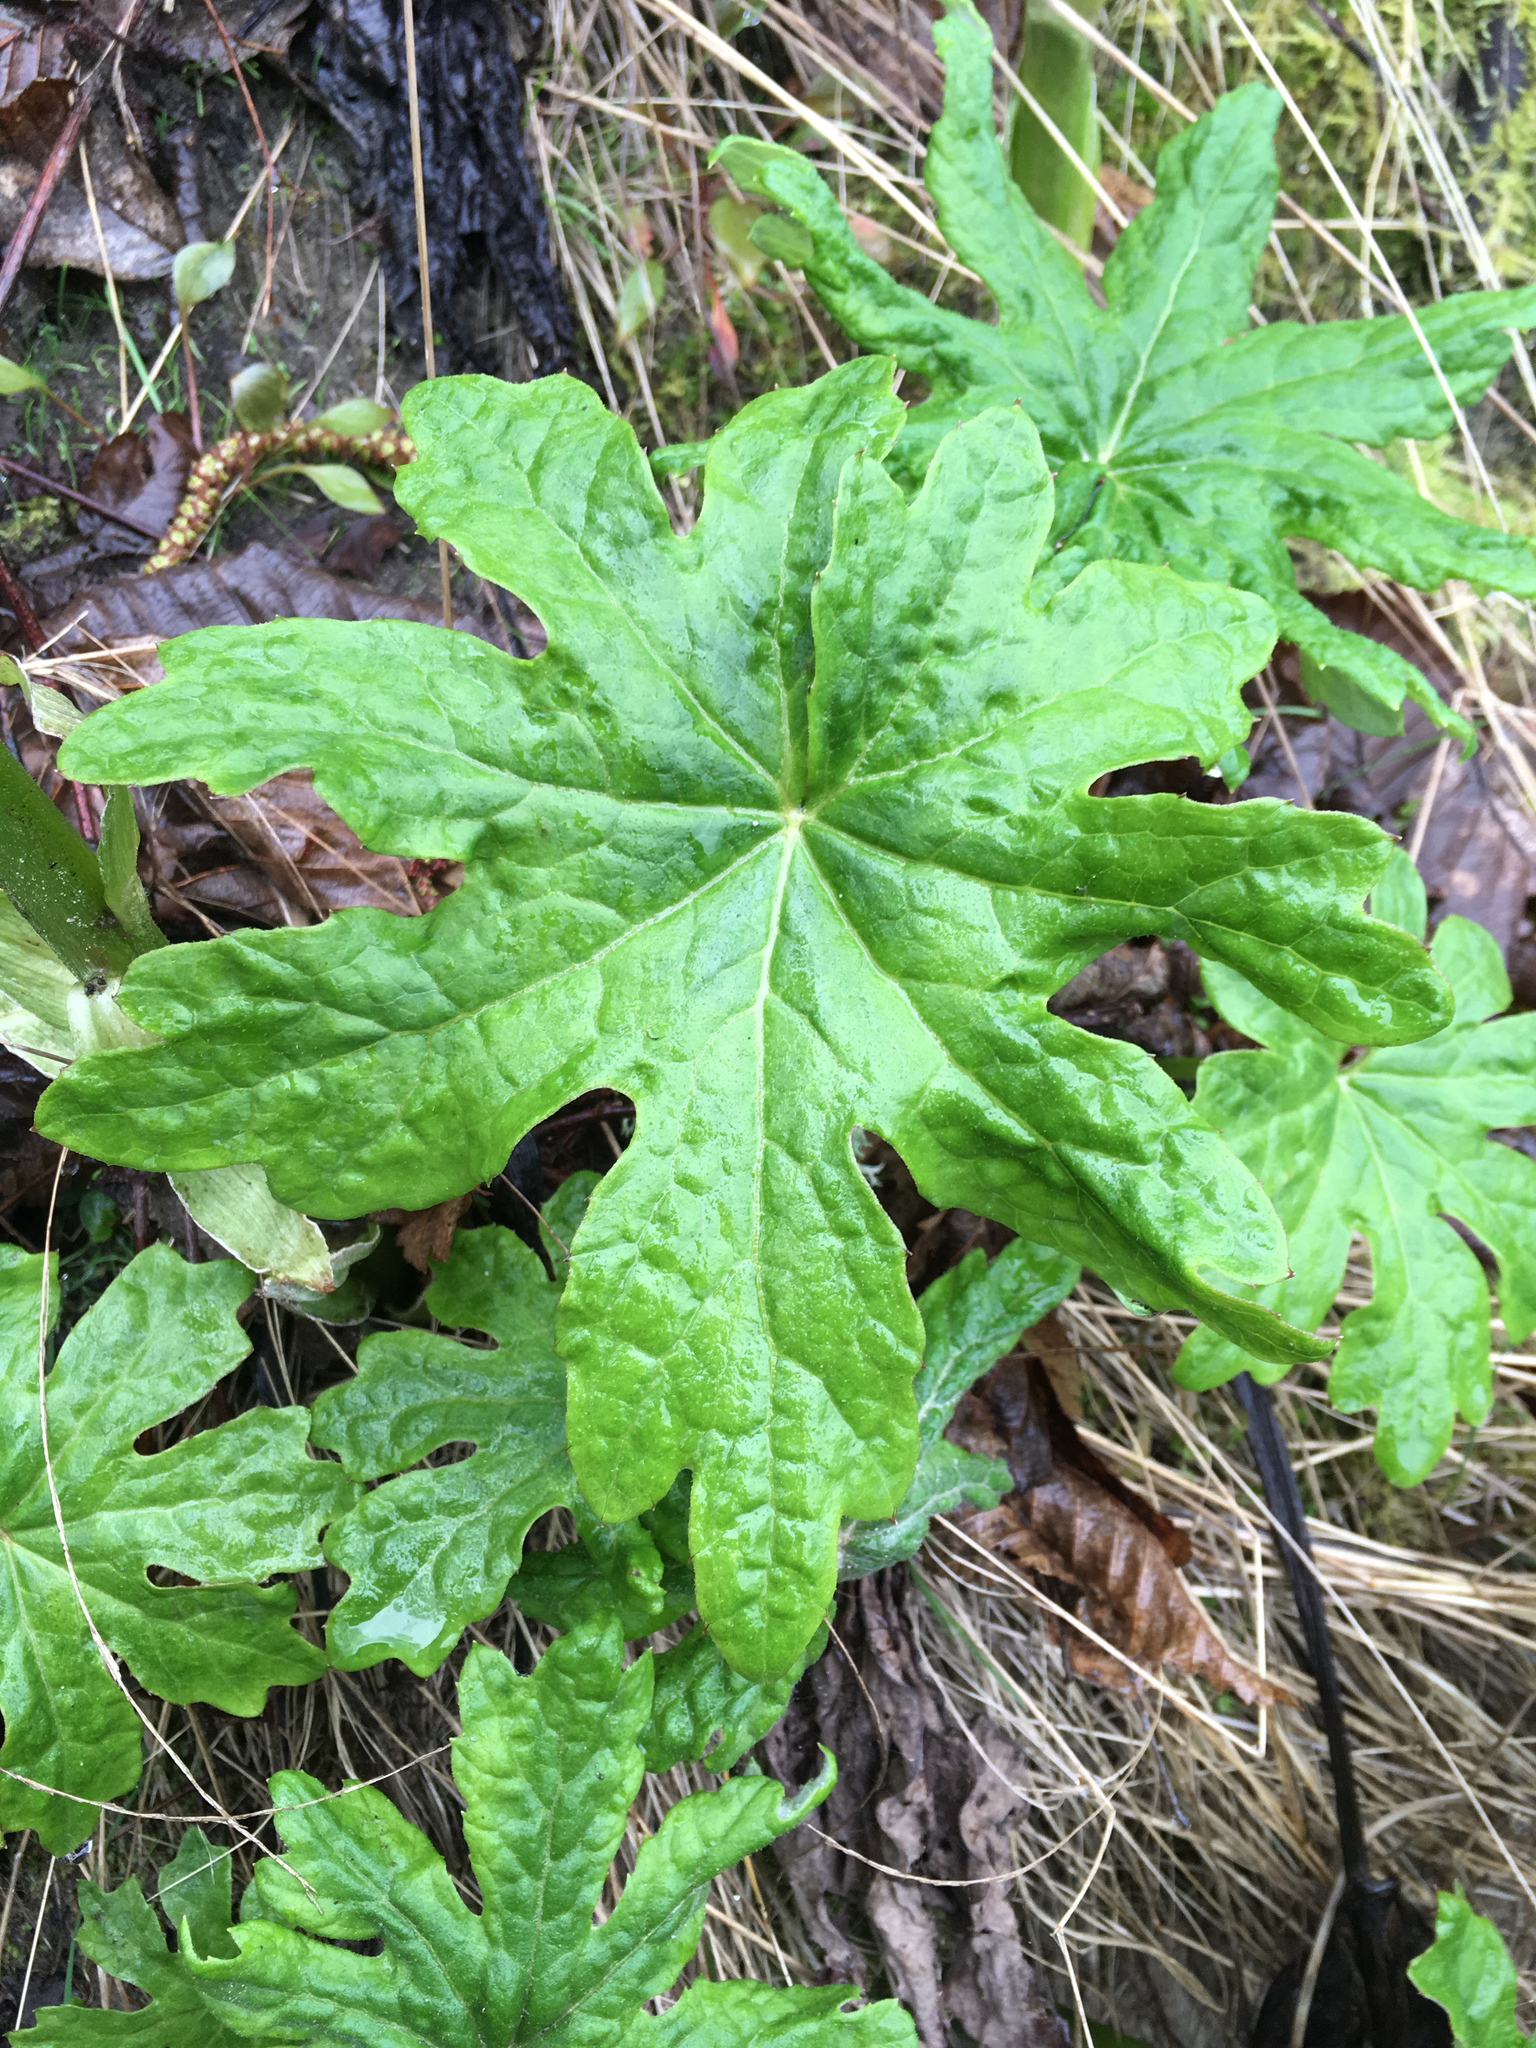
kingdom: Plantae
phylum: Tracheophyta
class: Magnoliopsida
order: Asterales
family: Asteraceae
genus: Petasites
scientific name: Petasites frigidus
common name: Arctic butterbur
